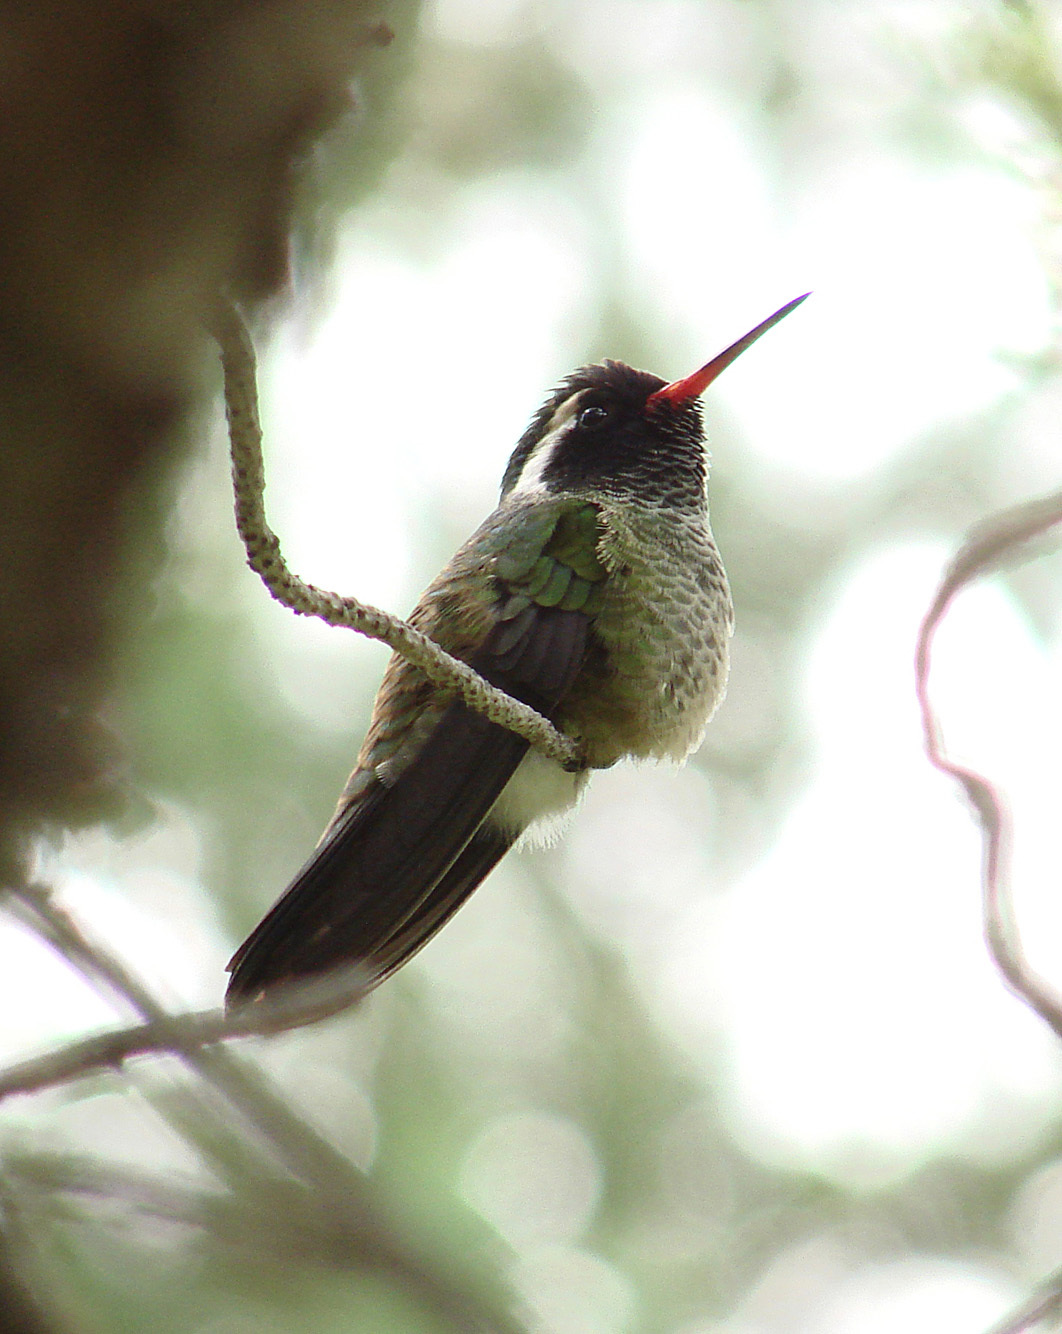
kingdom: Animalia
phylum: Chordata
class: Aves
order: Apodiformes
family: Trochilidae
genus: Basilinna
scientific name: Basilinna leucotis
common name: White-eared hummingbird
